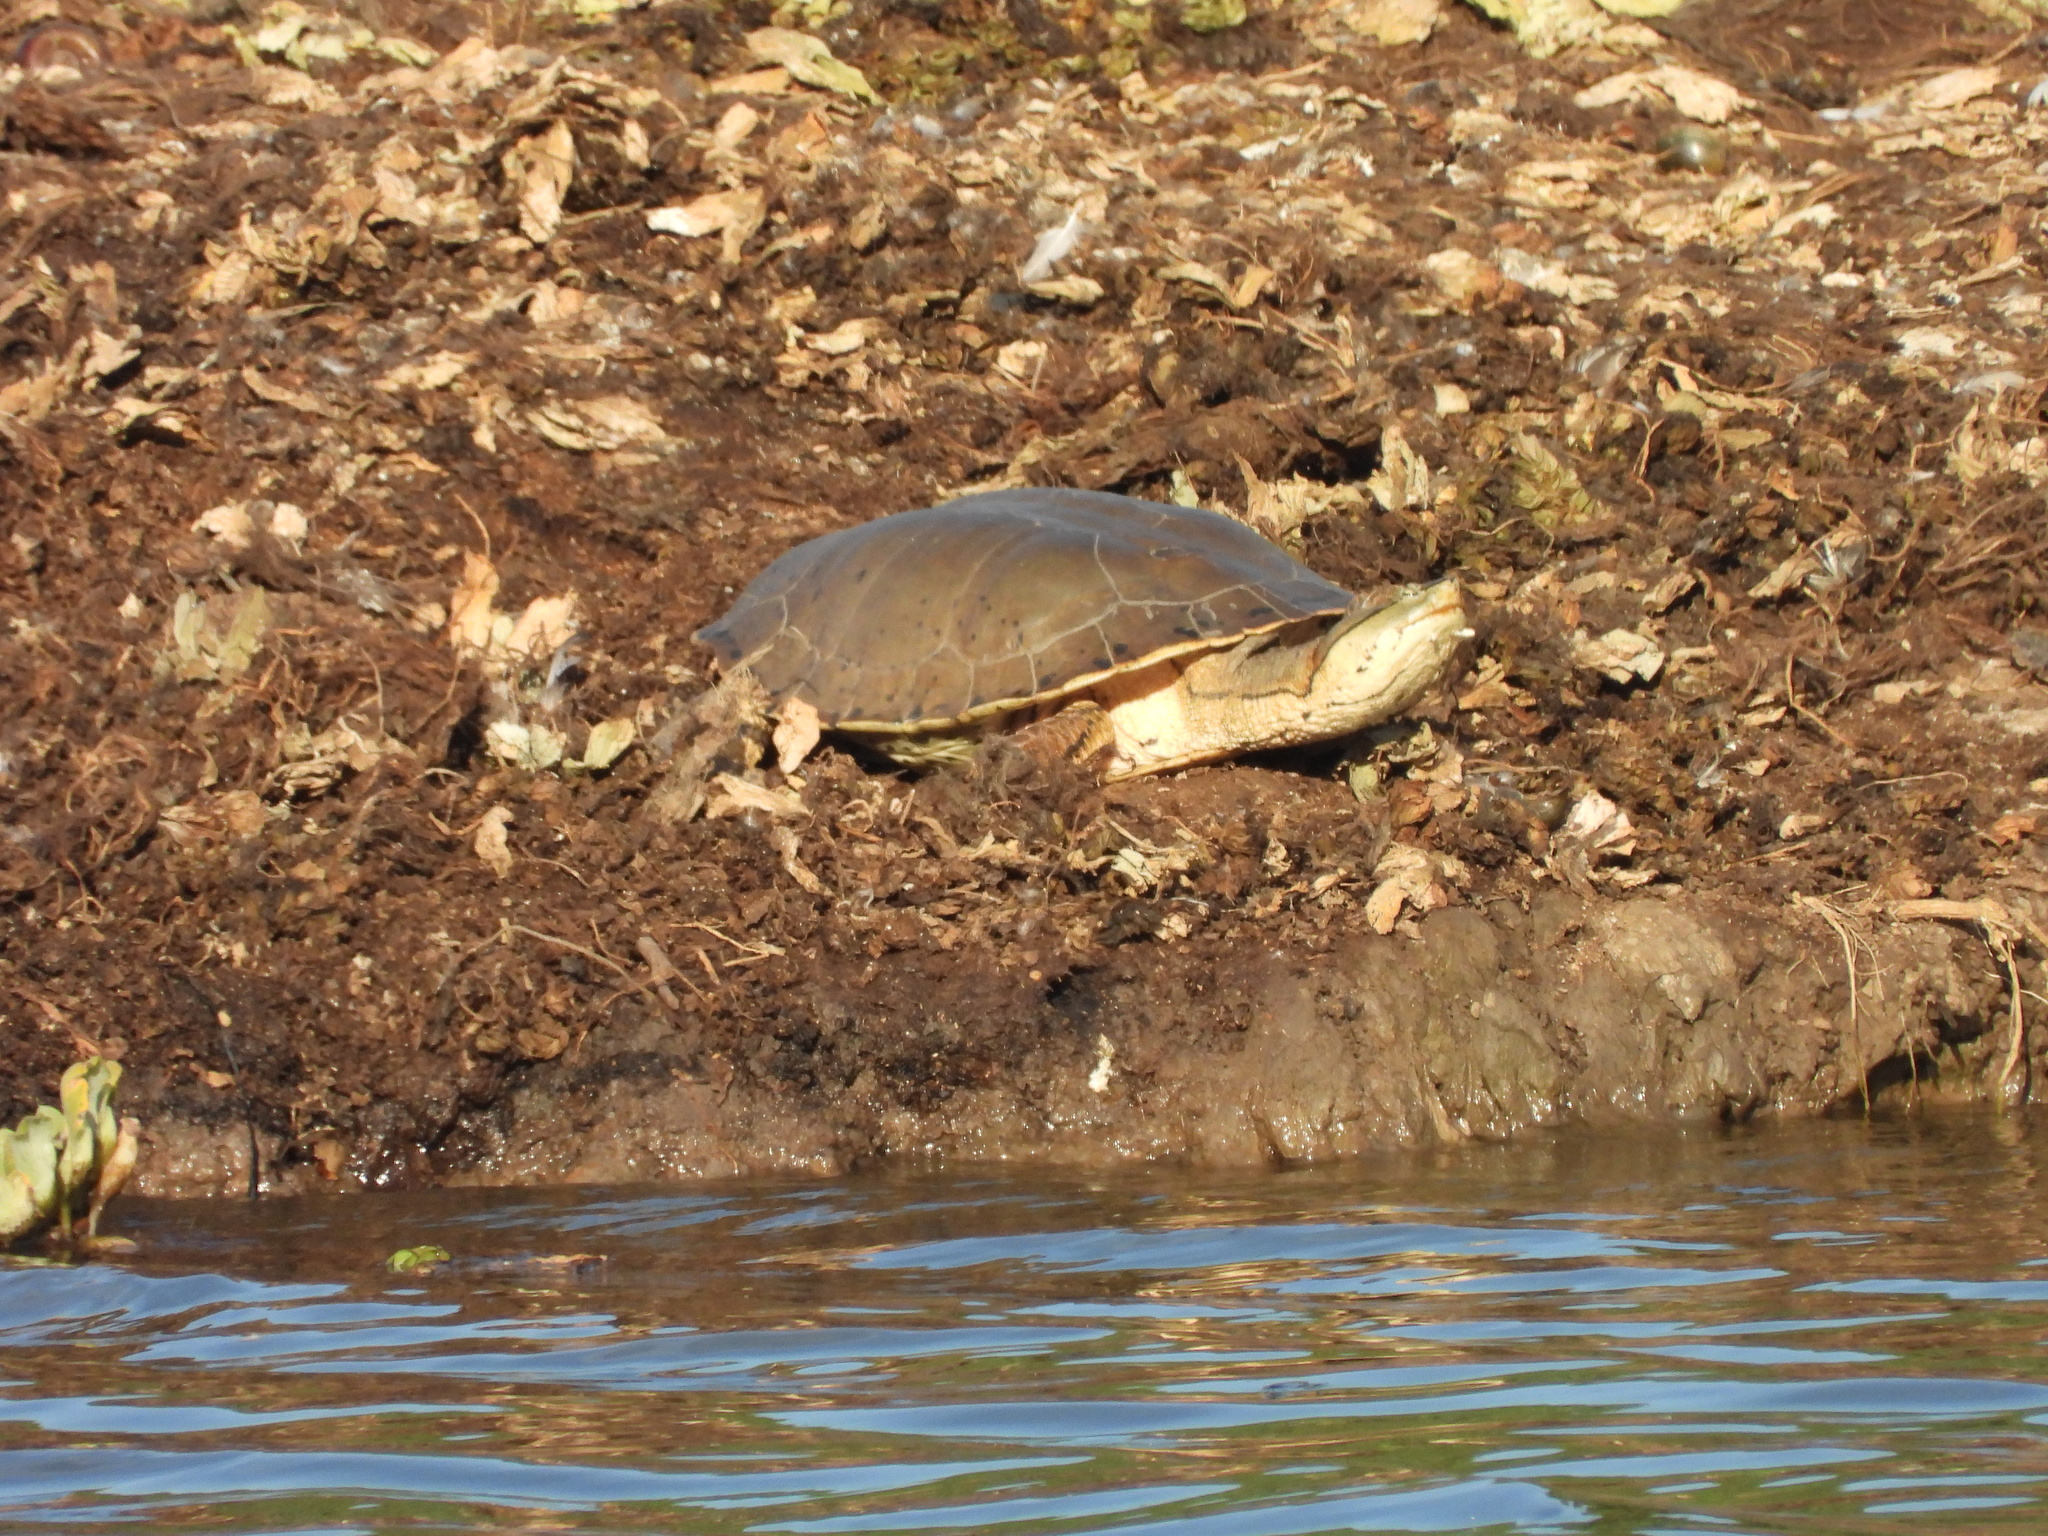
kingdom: Animalia
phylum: Chordata
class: Testudines
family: Chelidae
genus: Phrynops
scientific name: Phrynops hilarii
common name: Side-necked turtle of saint hillaire
